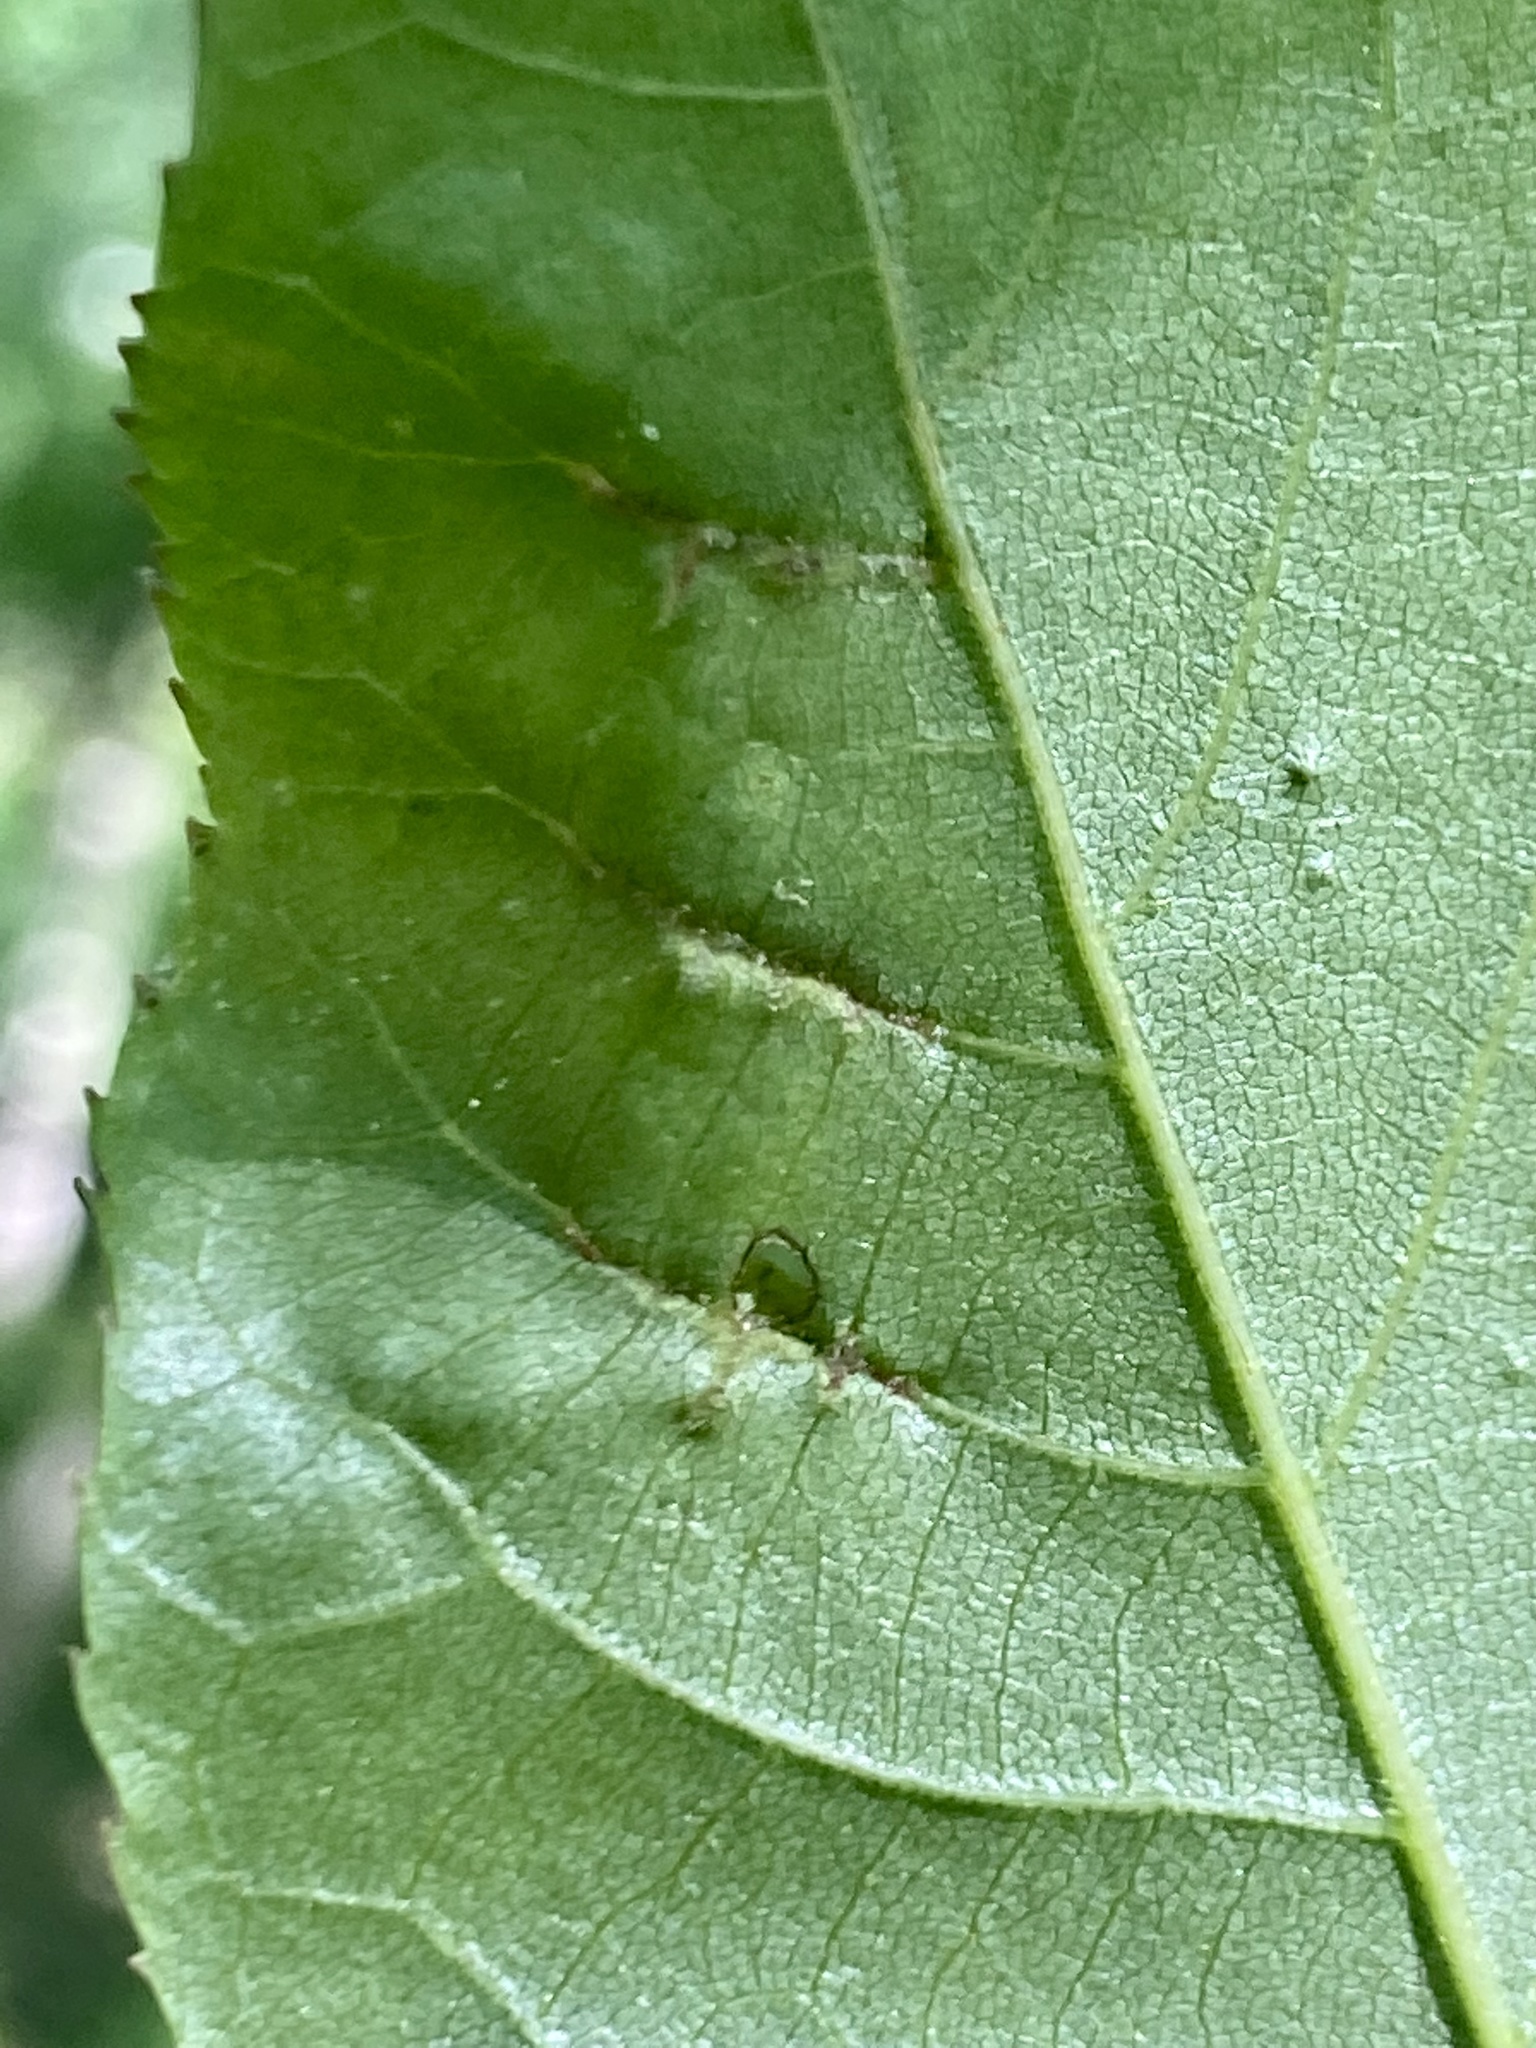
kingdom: Animalia
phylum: Arthropoda
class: Insecta
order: Hemiptera
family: Phylloxeridae
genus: Phylloxera
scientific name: Phylloxera caryaevenae
